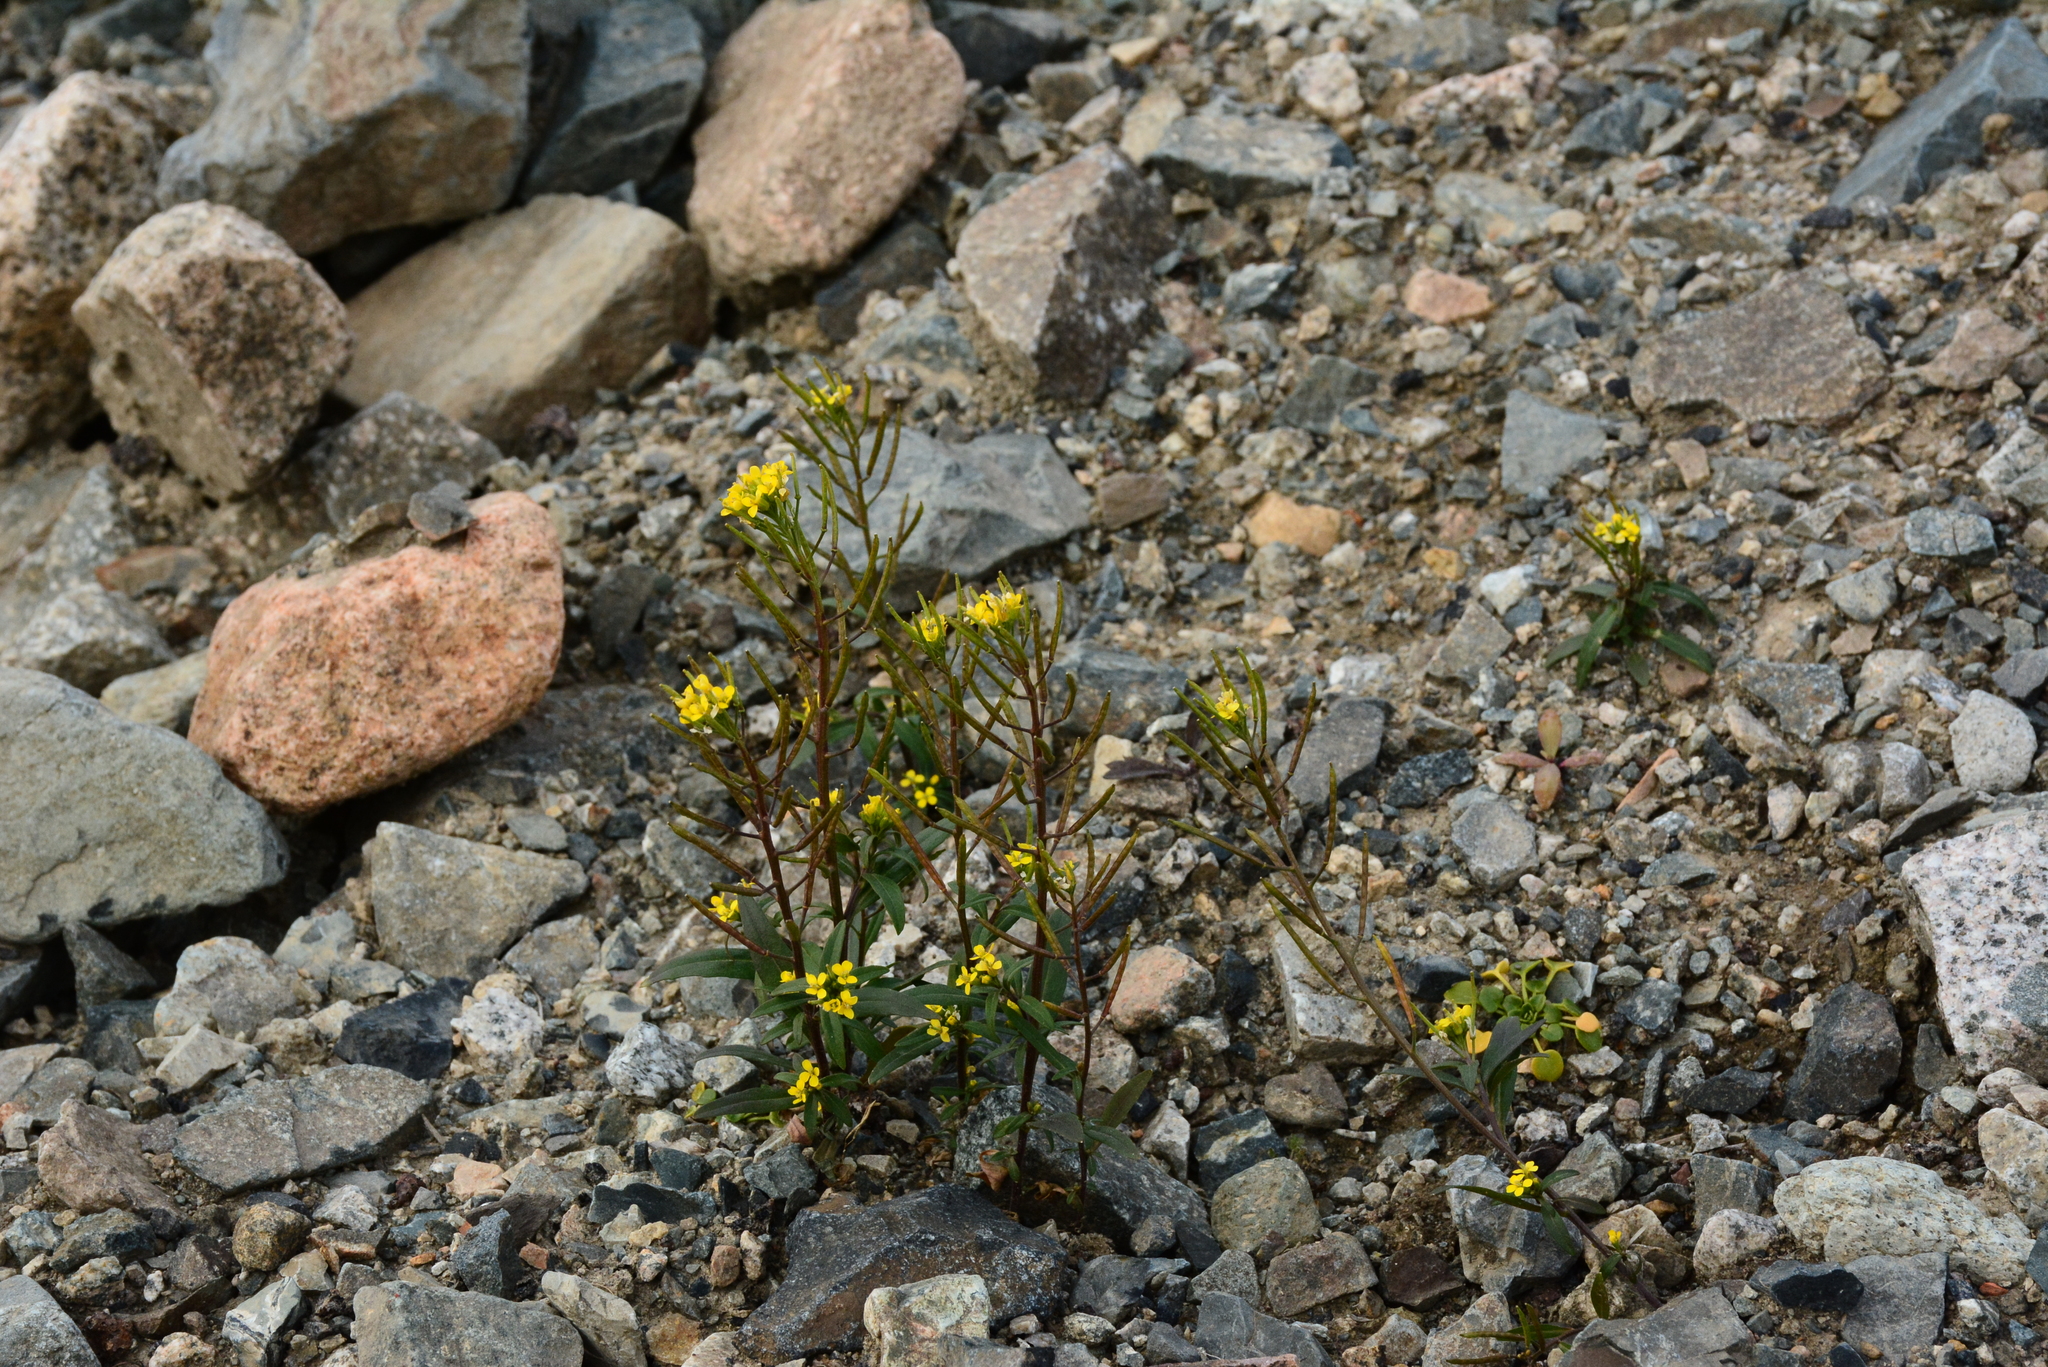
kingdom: Plantae
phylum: Tracheophyta
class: Magnoliopsida
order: Brassicales
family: Brassicaceae
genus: Erysimum
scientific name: Erysimum cheiranthoides
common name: Treacle mustard
